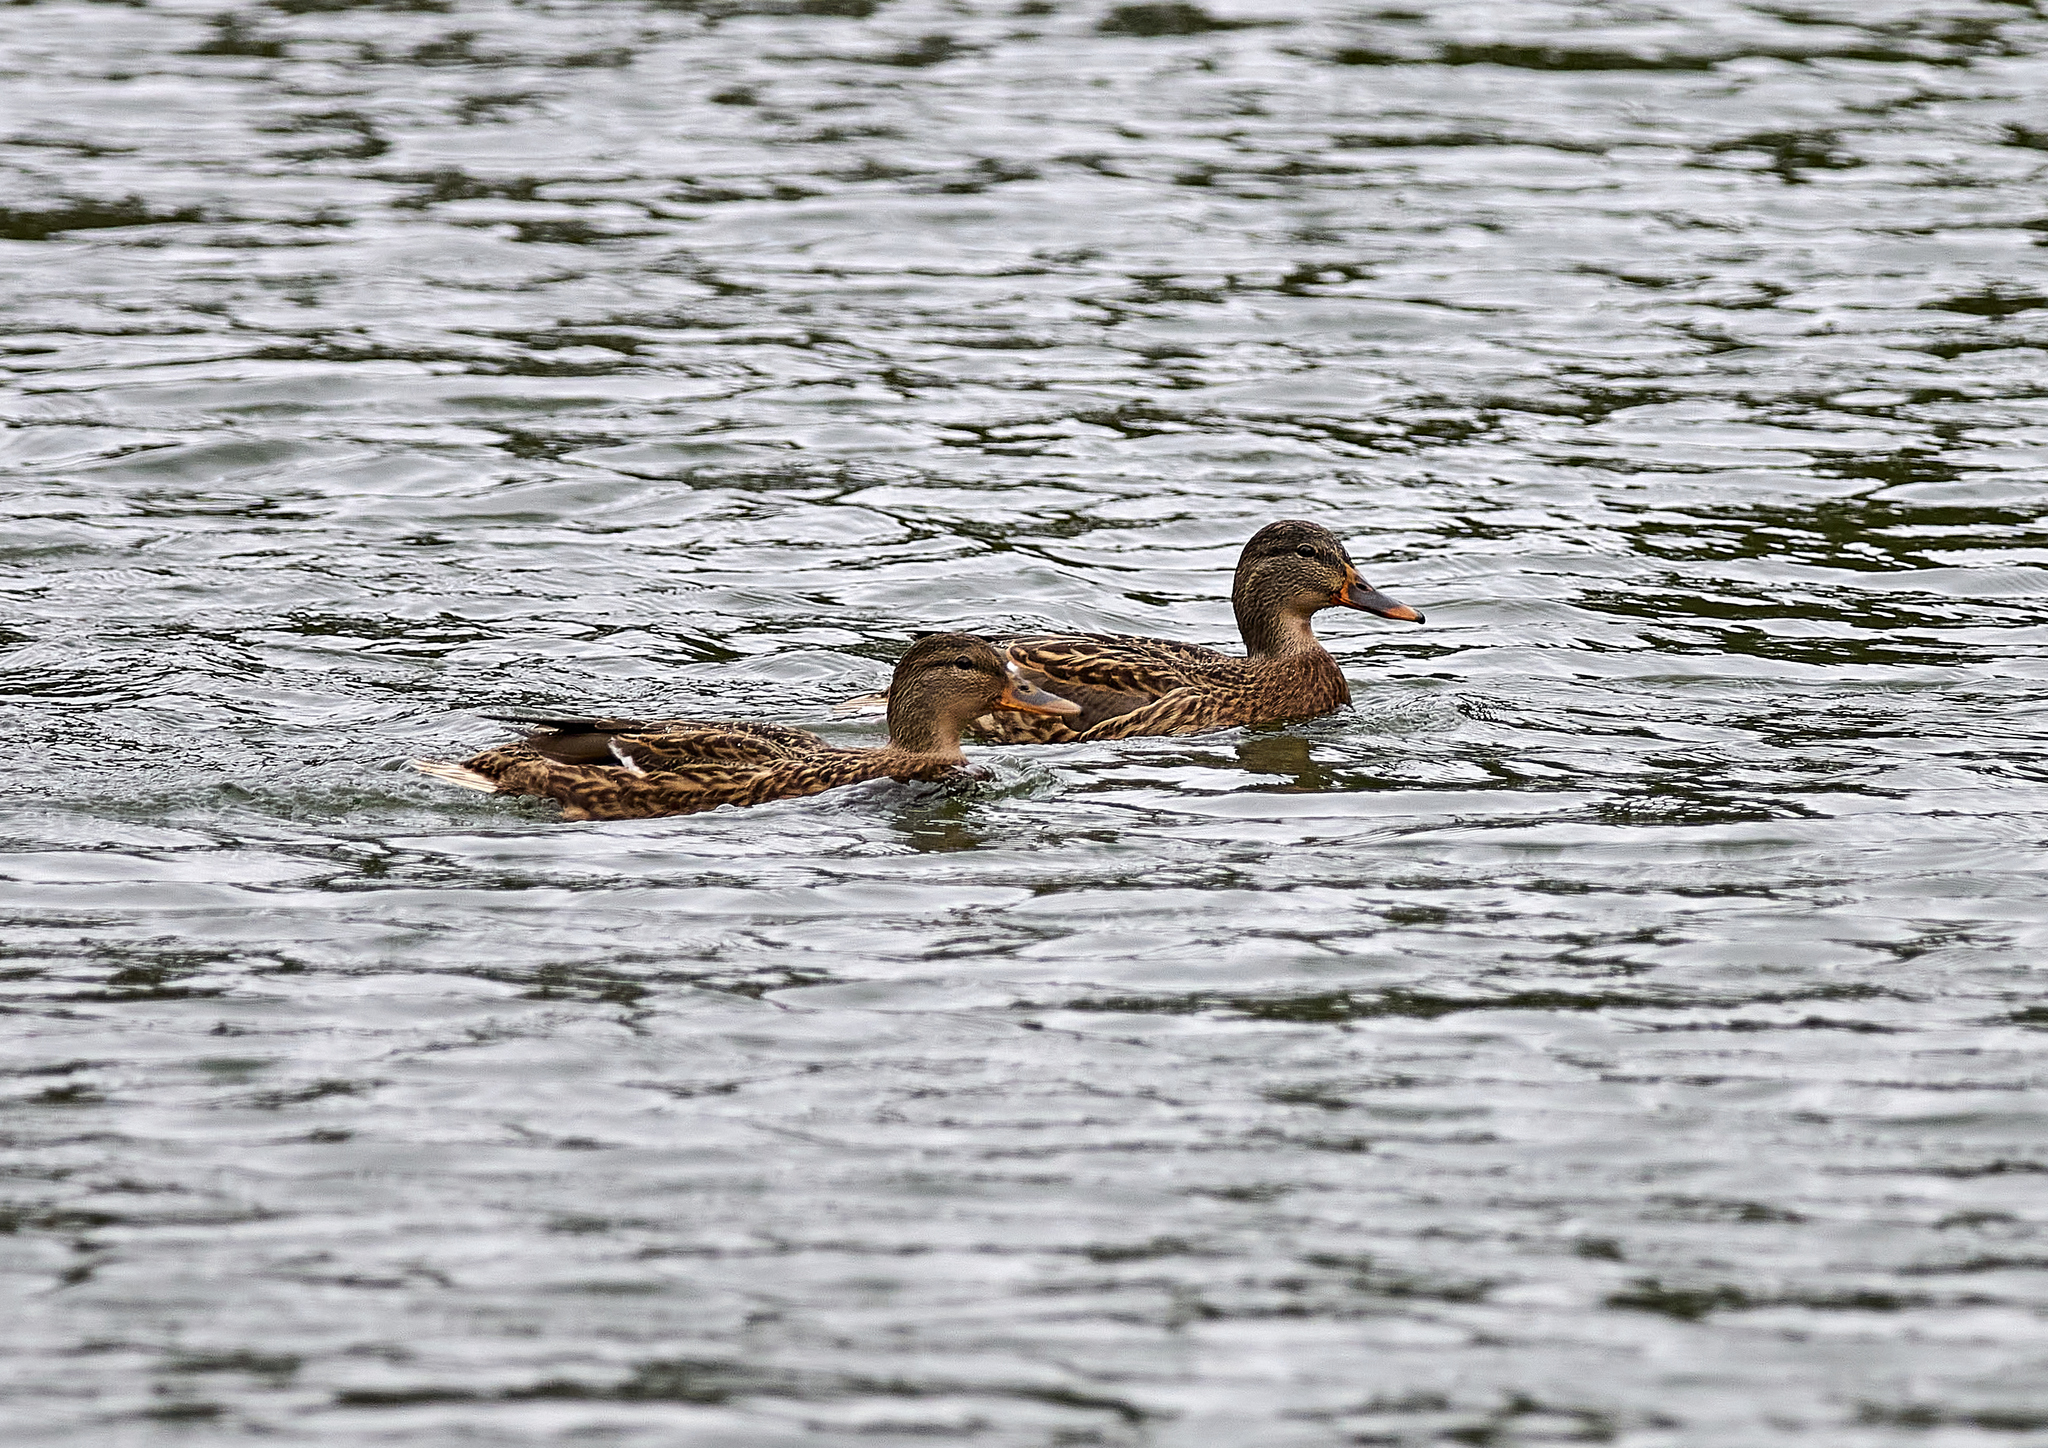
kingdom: Animalia
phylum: Chordata
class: Aves
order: Anseriformes
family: Anatidae
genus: Anas
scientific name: Anas platyrhynchos
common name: Mallard
